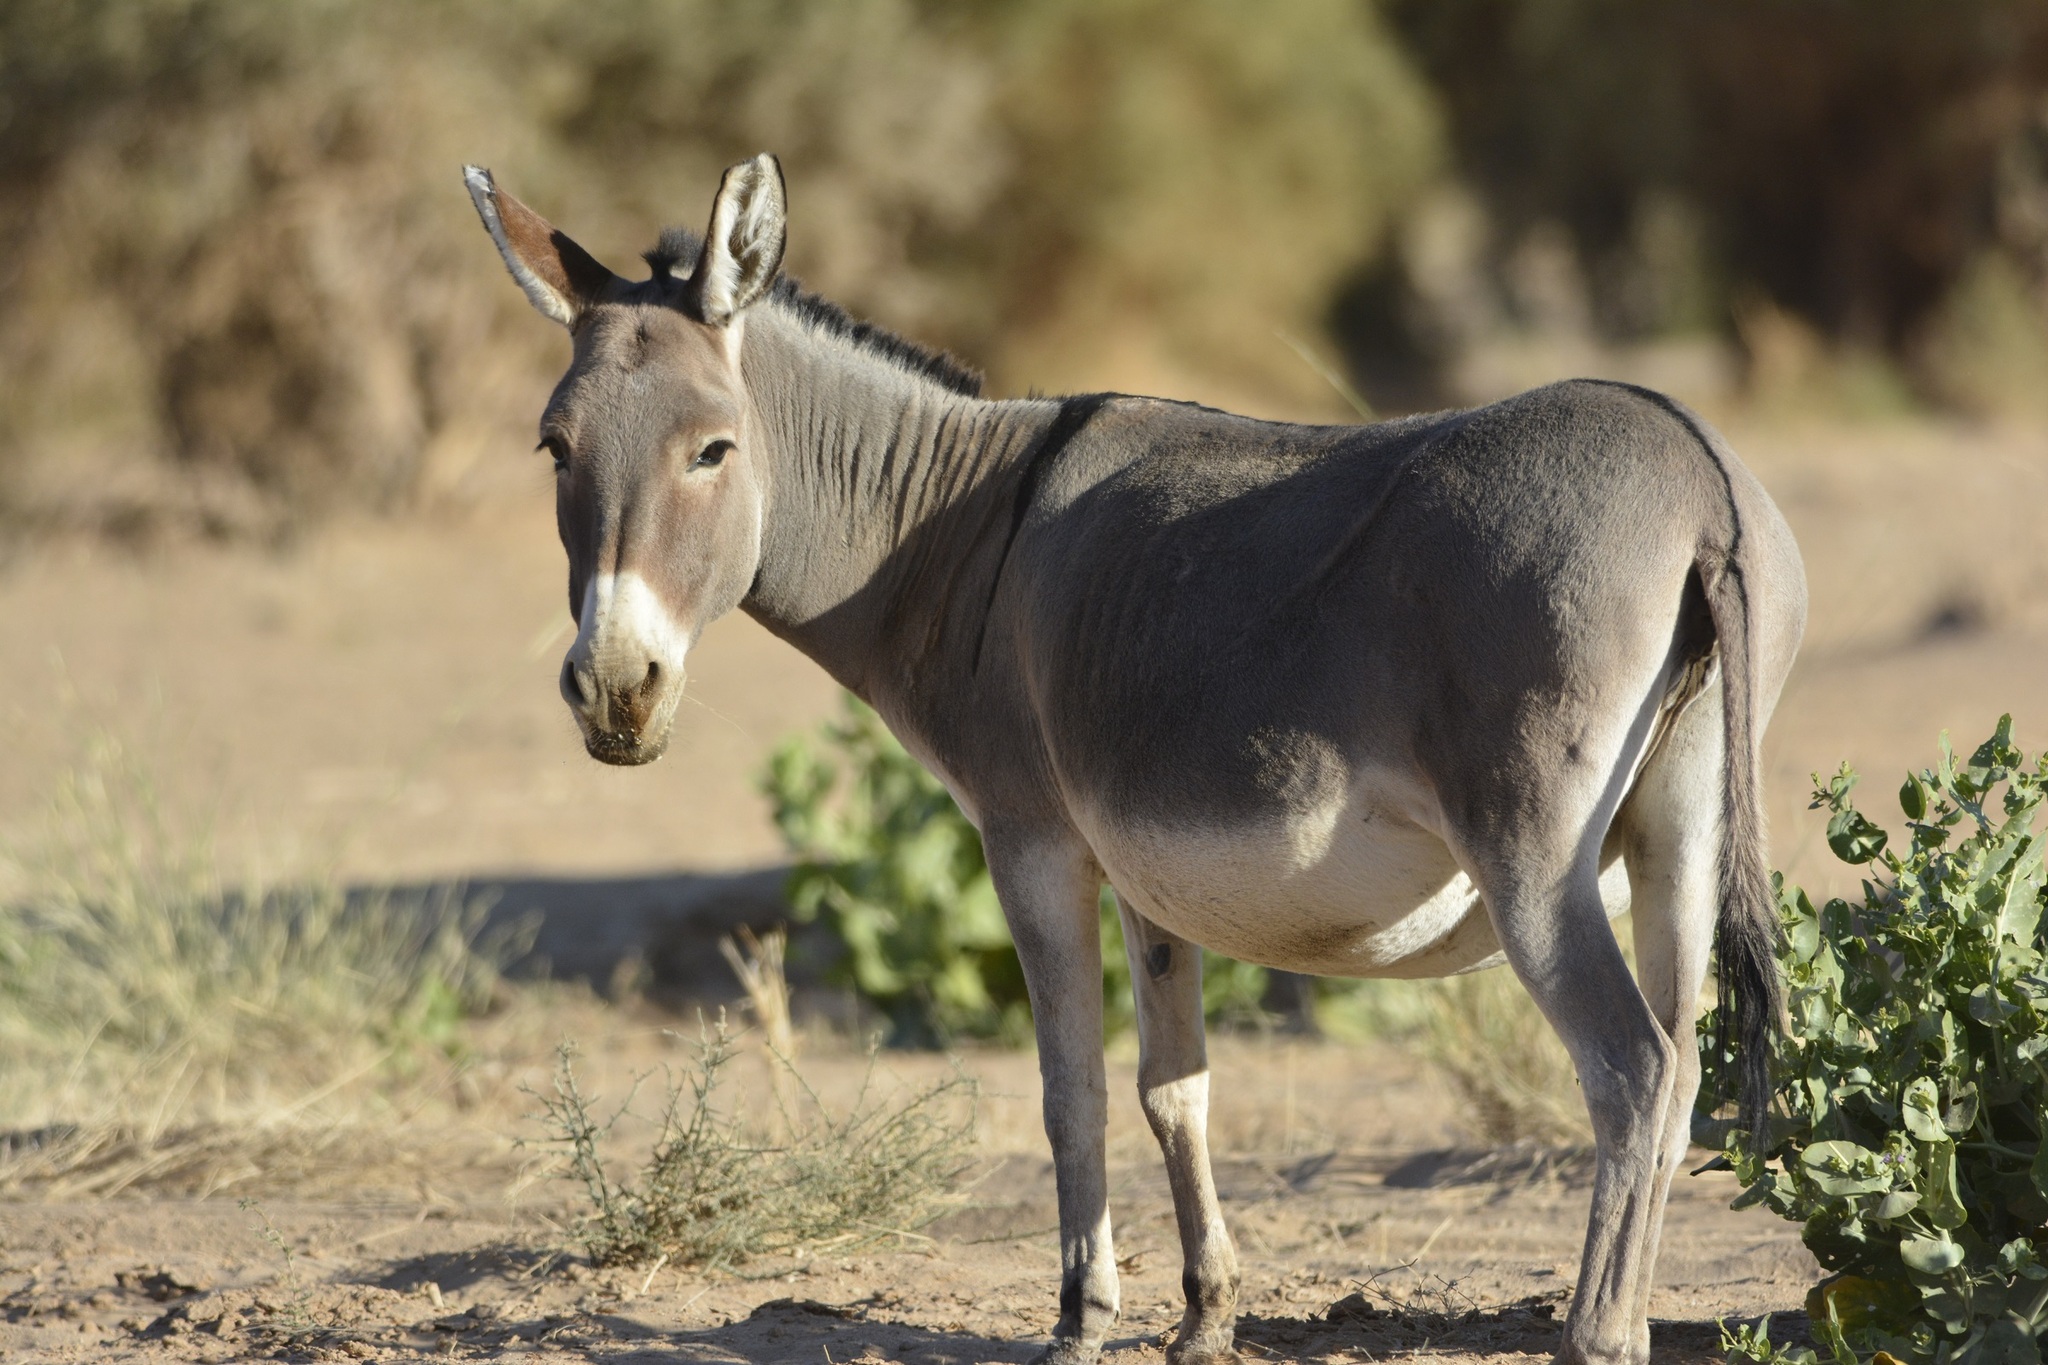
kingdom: Animalia
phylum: Chordata
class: Mammalia
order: Perissodactyla
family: Equidae
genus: Equus
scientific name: Equus asinus
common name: Ass
